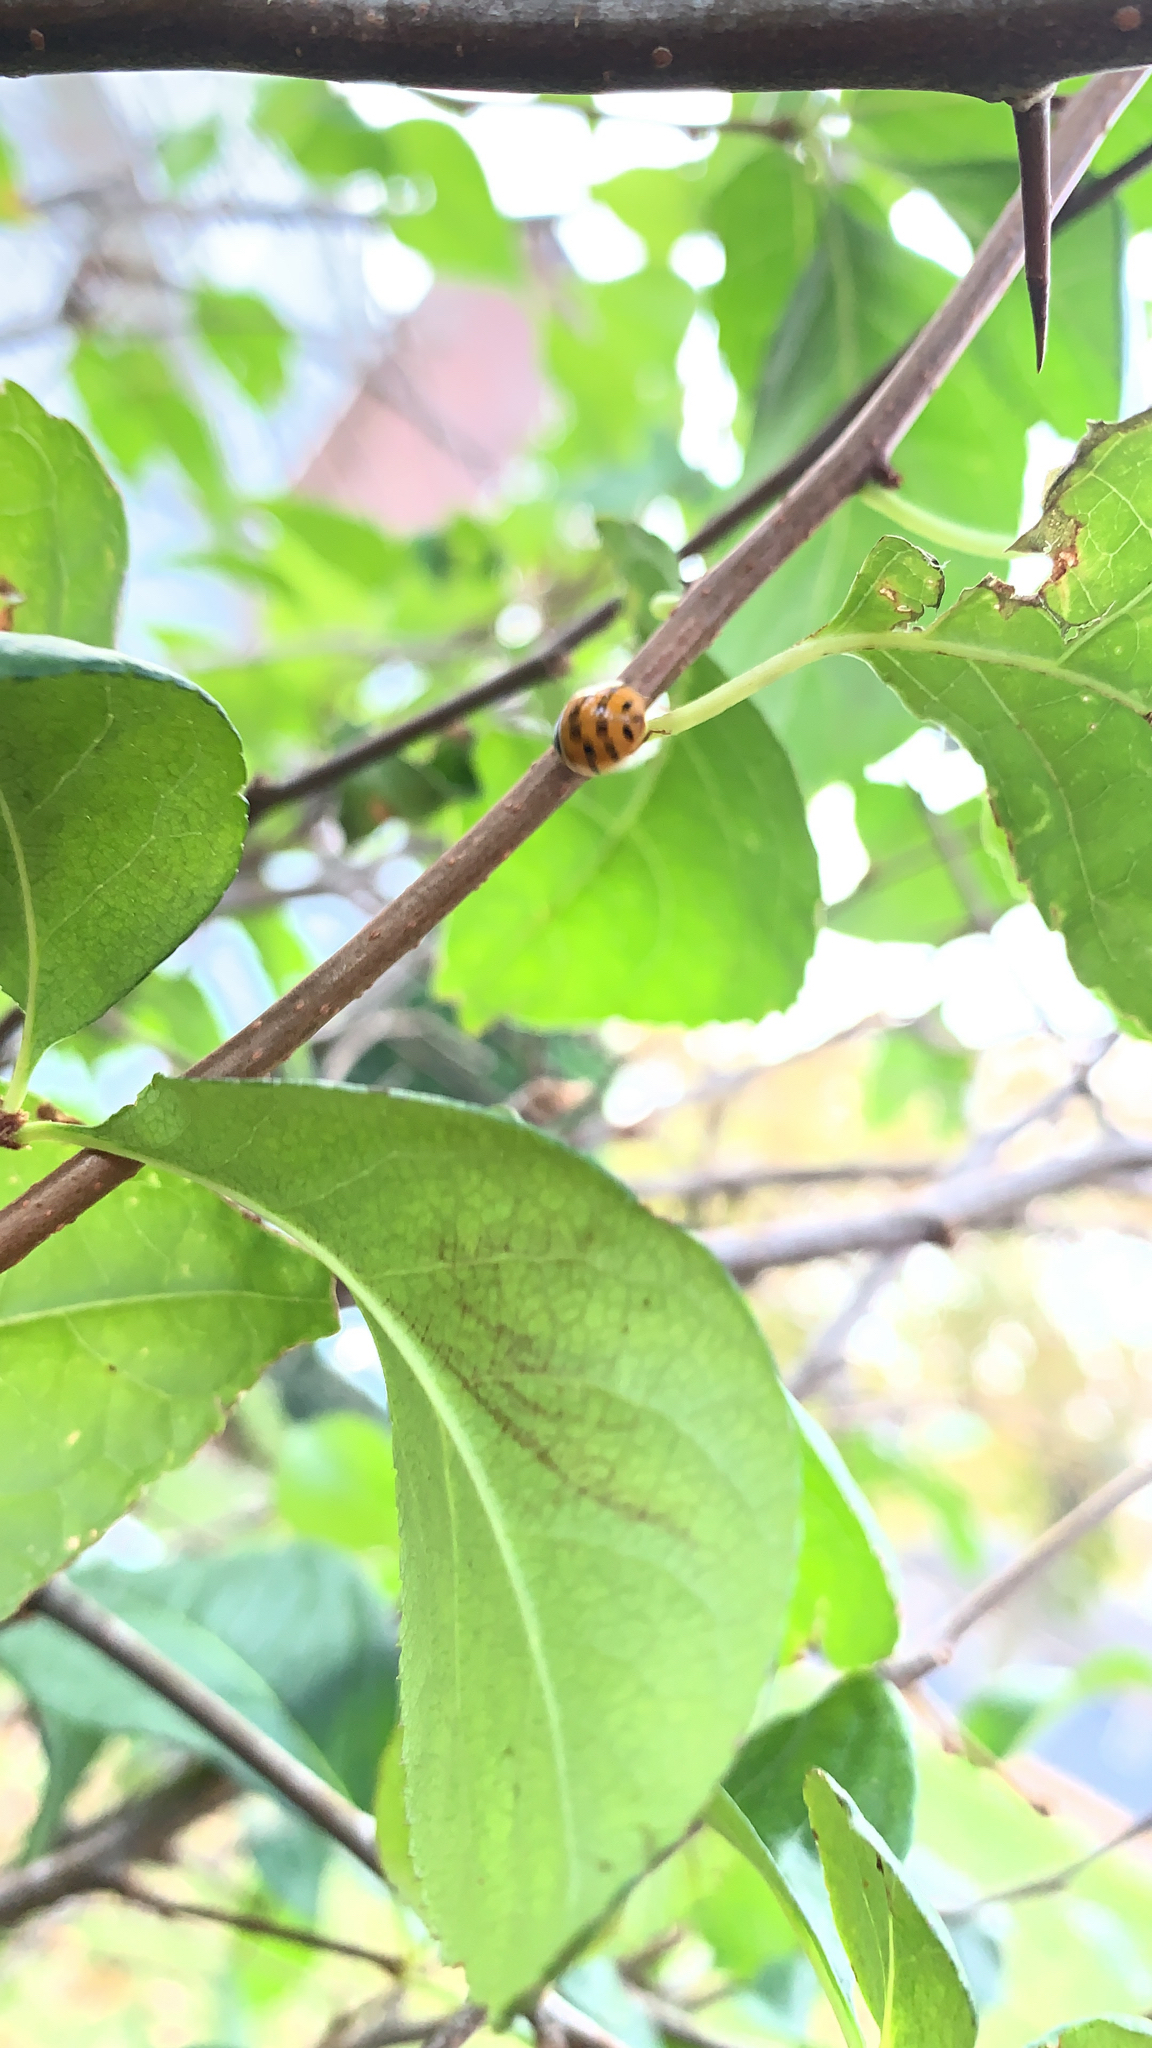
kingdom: Animalia
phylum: Arthropoda
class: Insecta
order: Coleoptera
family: Coccinellidae
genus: Harmonia
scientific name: Harmonia axyridis
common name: Harlequin ladybird
